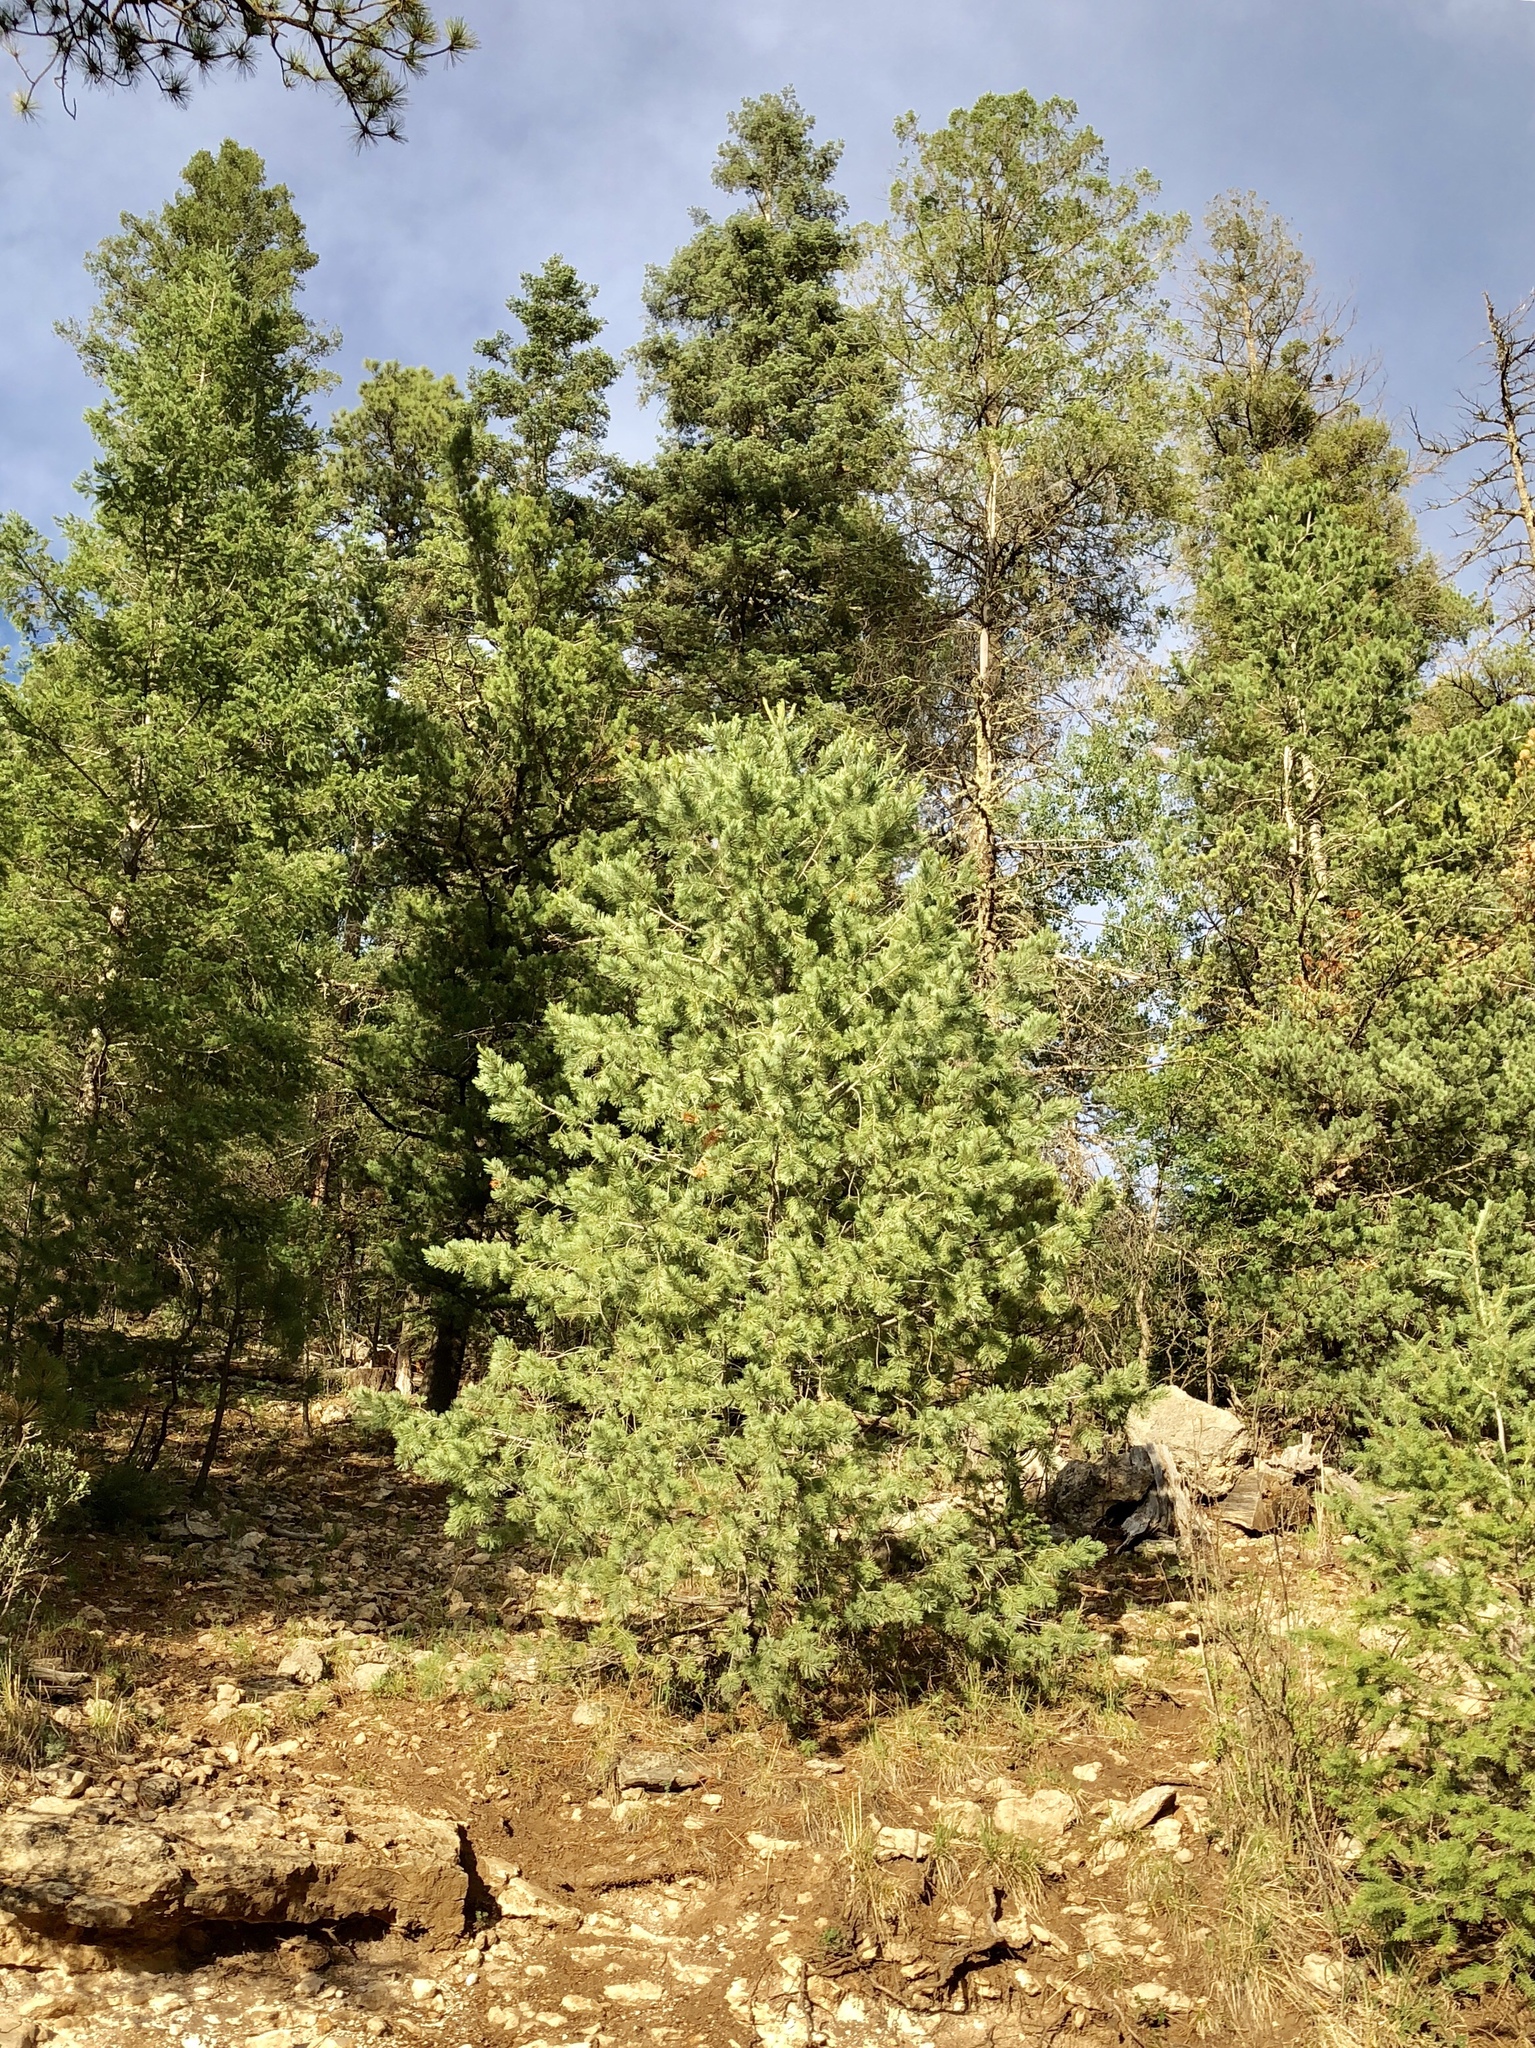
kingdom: Plantae
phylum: Tracheophyta
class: Pinopsida
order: Pinales
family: Pinaceae
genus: Pinus
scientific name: Pinus strobiformis
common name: Southwestern white pine
